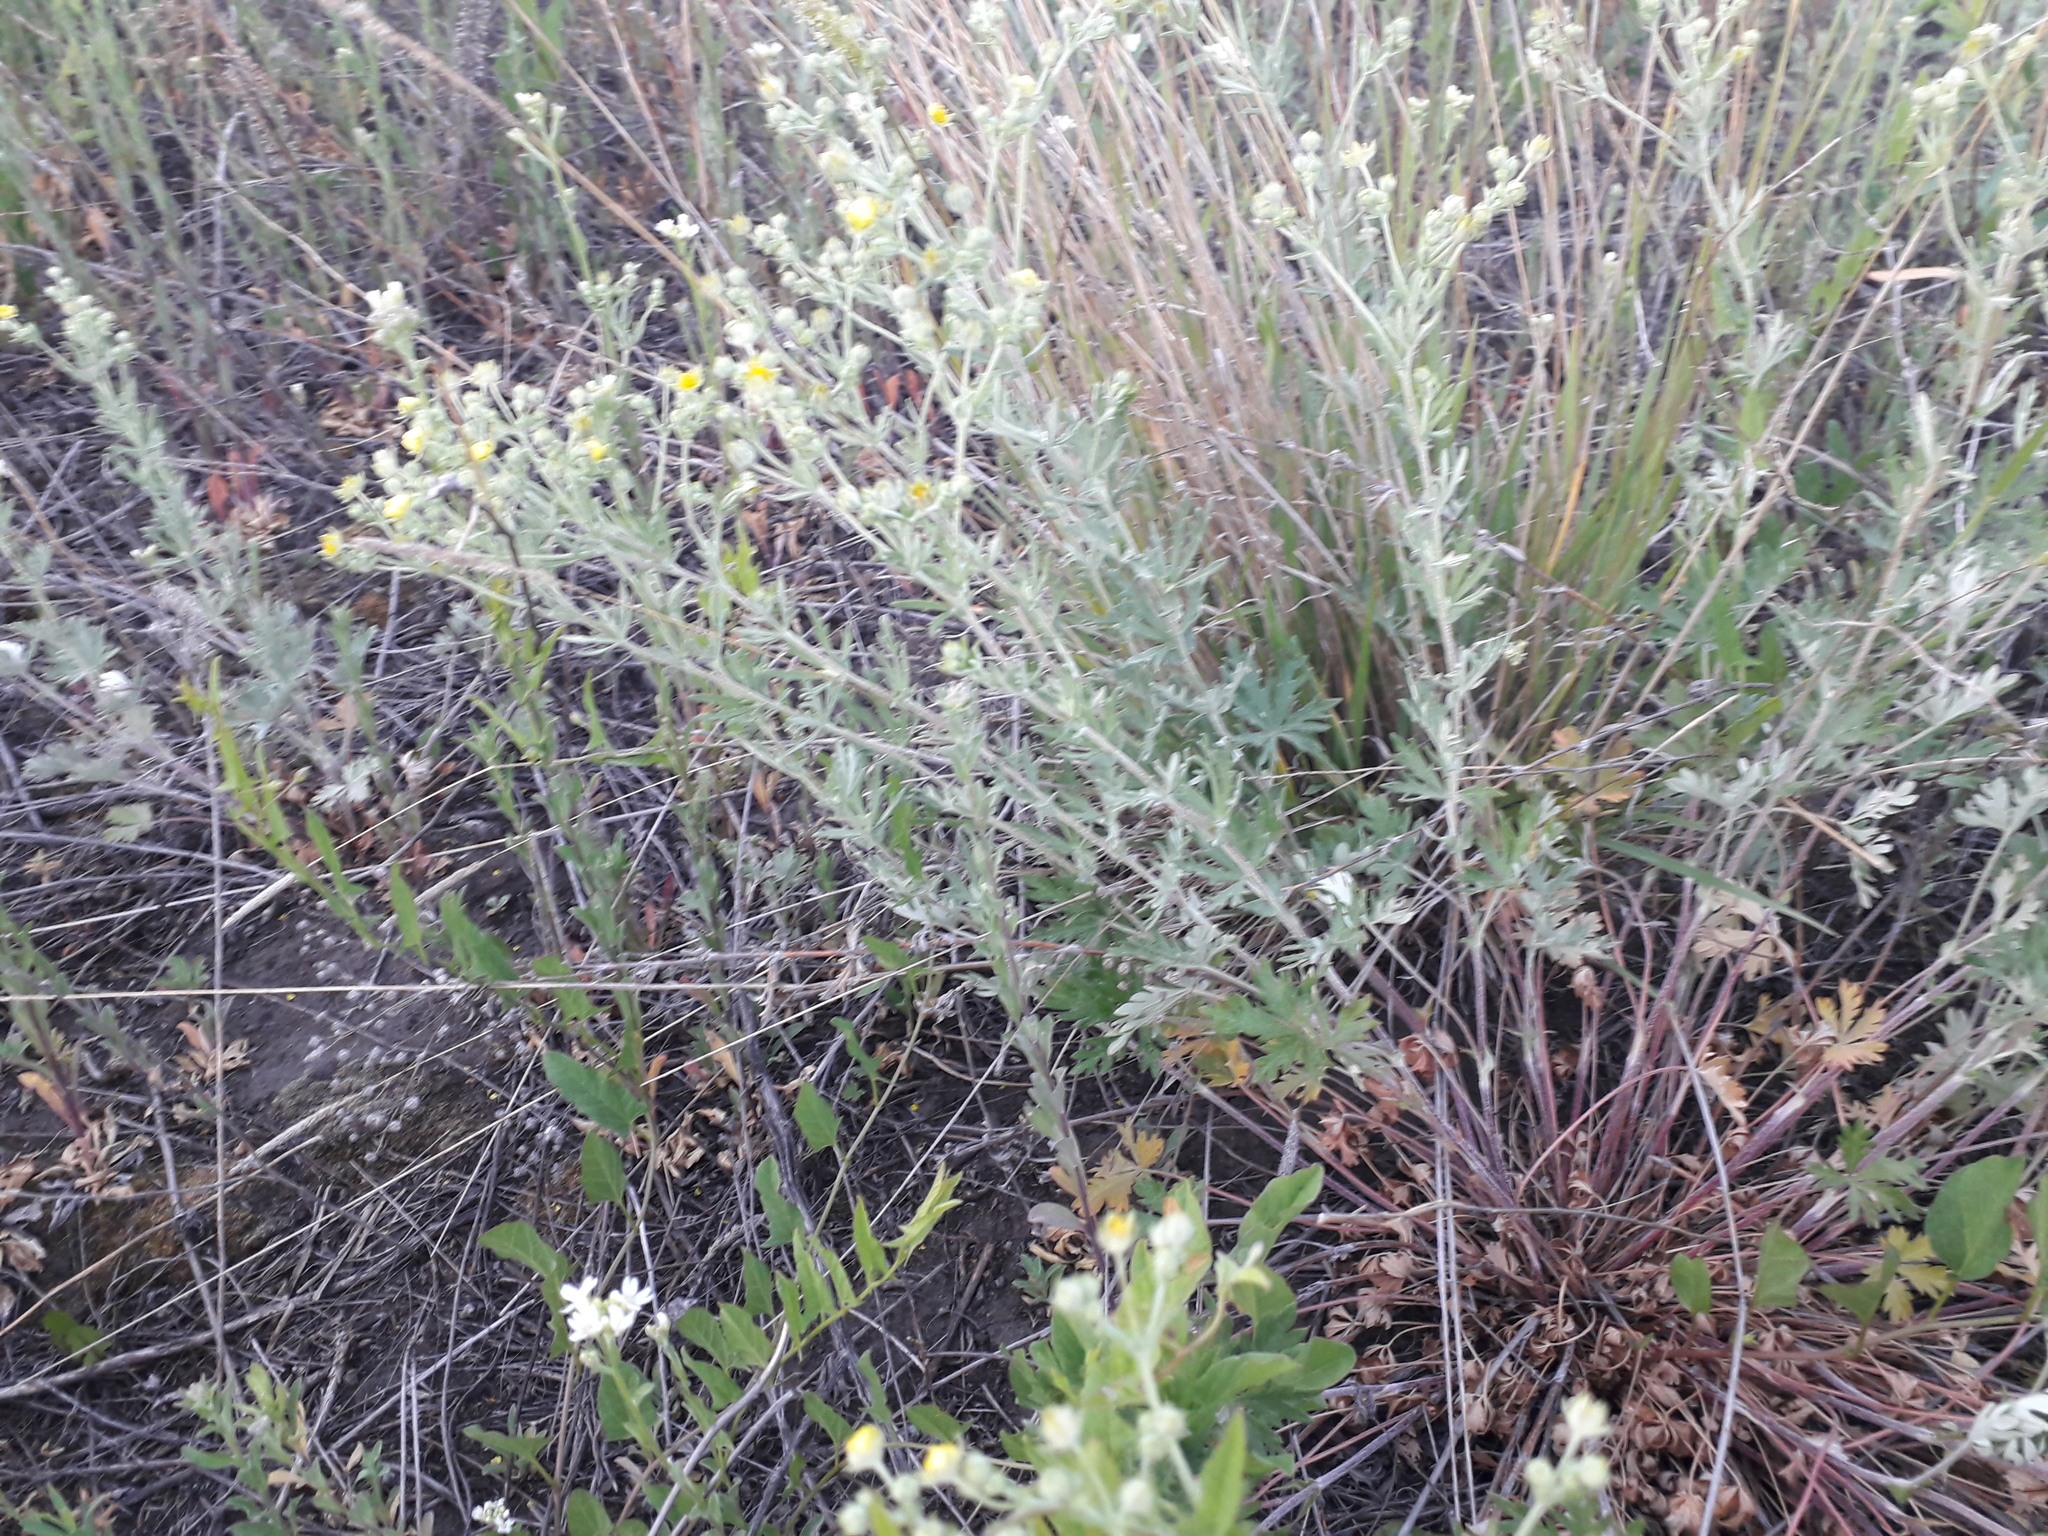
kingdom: Plantae
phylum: Tracheophyta
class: Magnoliopsida
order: Rosales
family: Rosaceae
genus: Potentilla
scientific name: Potentilla argentea
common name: Hoary cinquefoil
